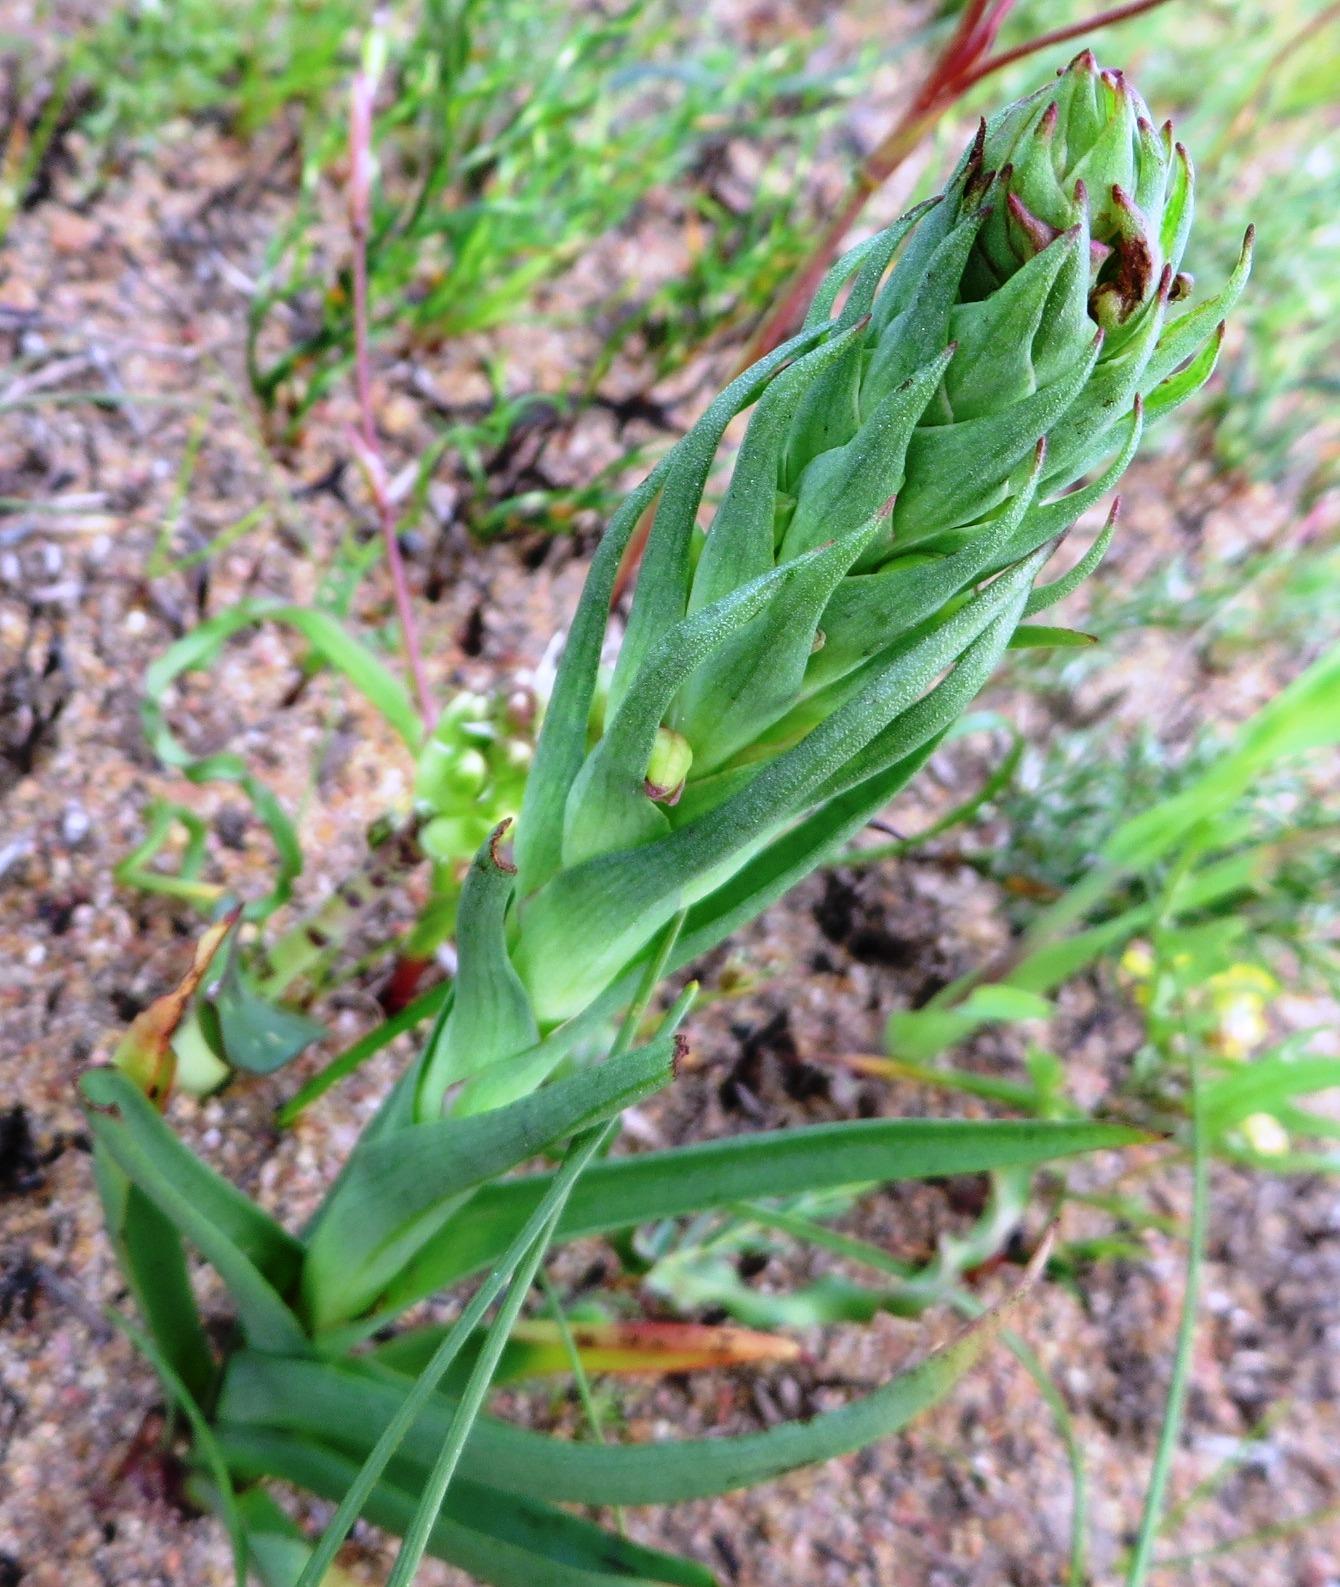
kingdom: Plantae
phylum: Tracheophyta
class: Liliopsida
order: Asparagales
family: Orchidaceae
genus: Disa
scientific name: Disa bracteata
